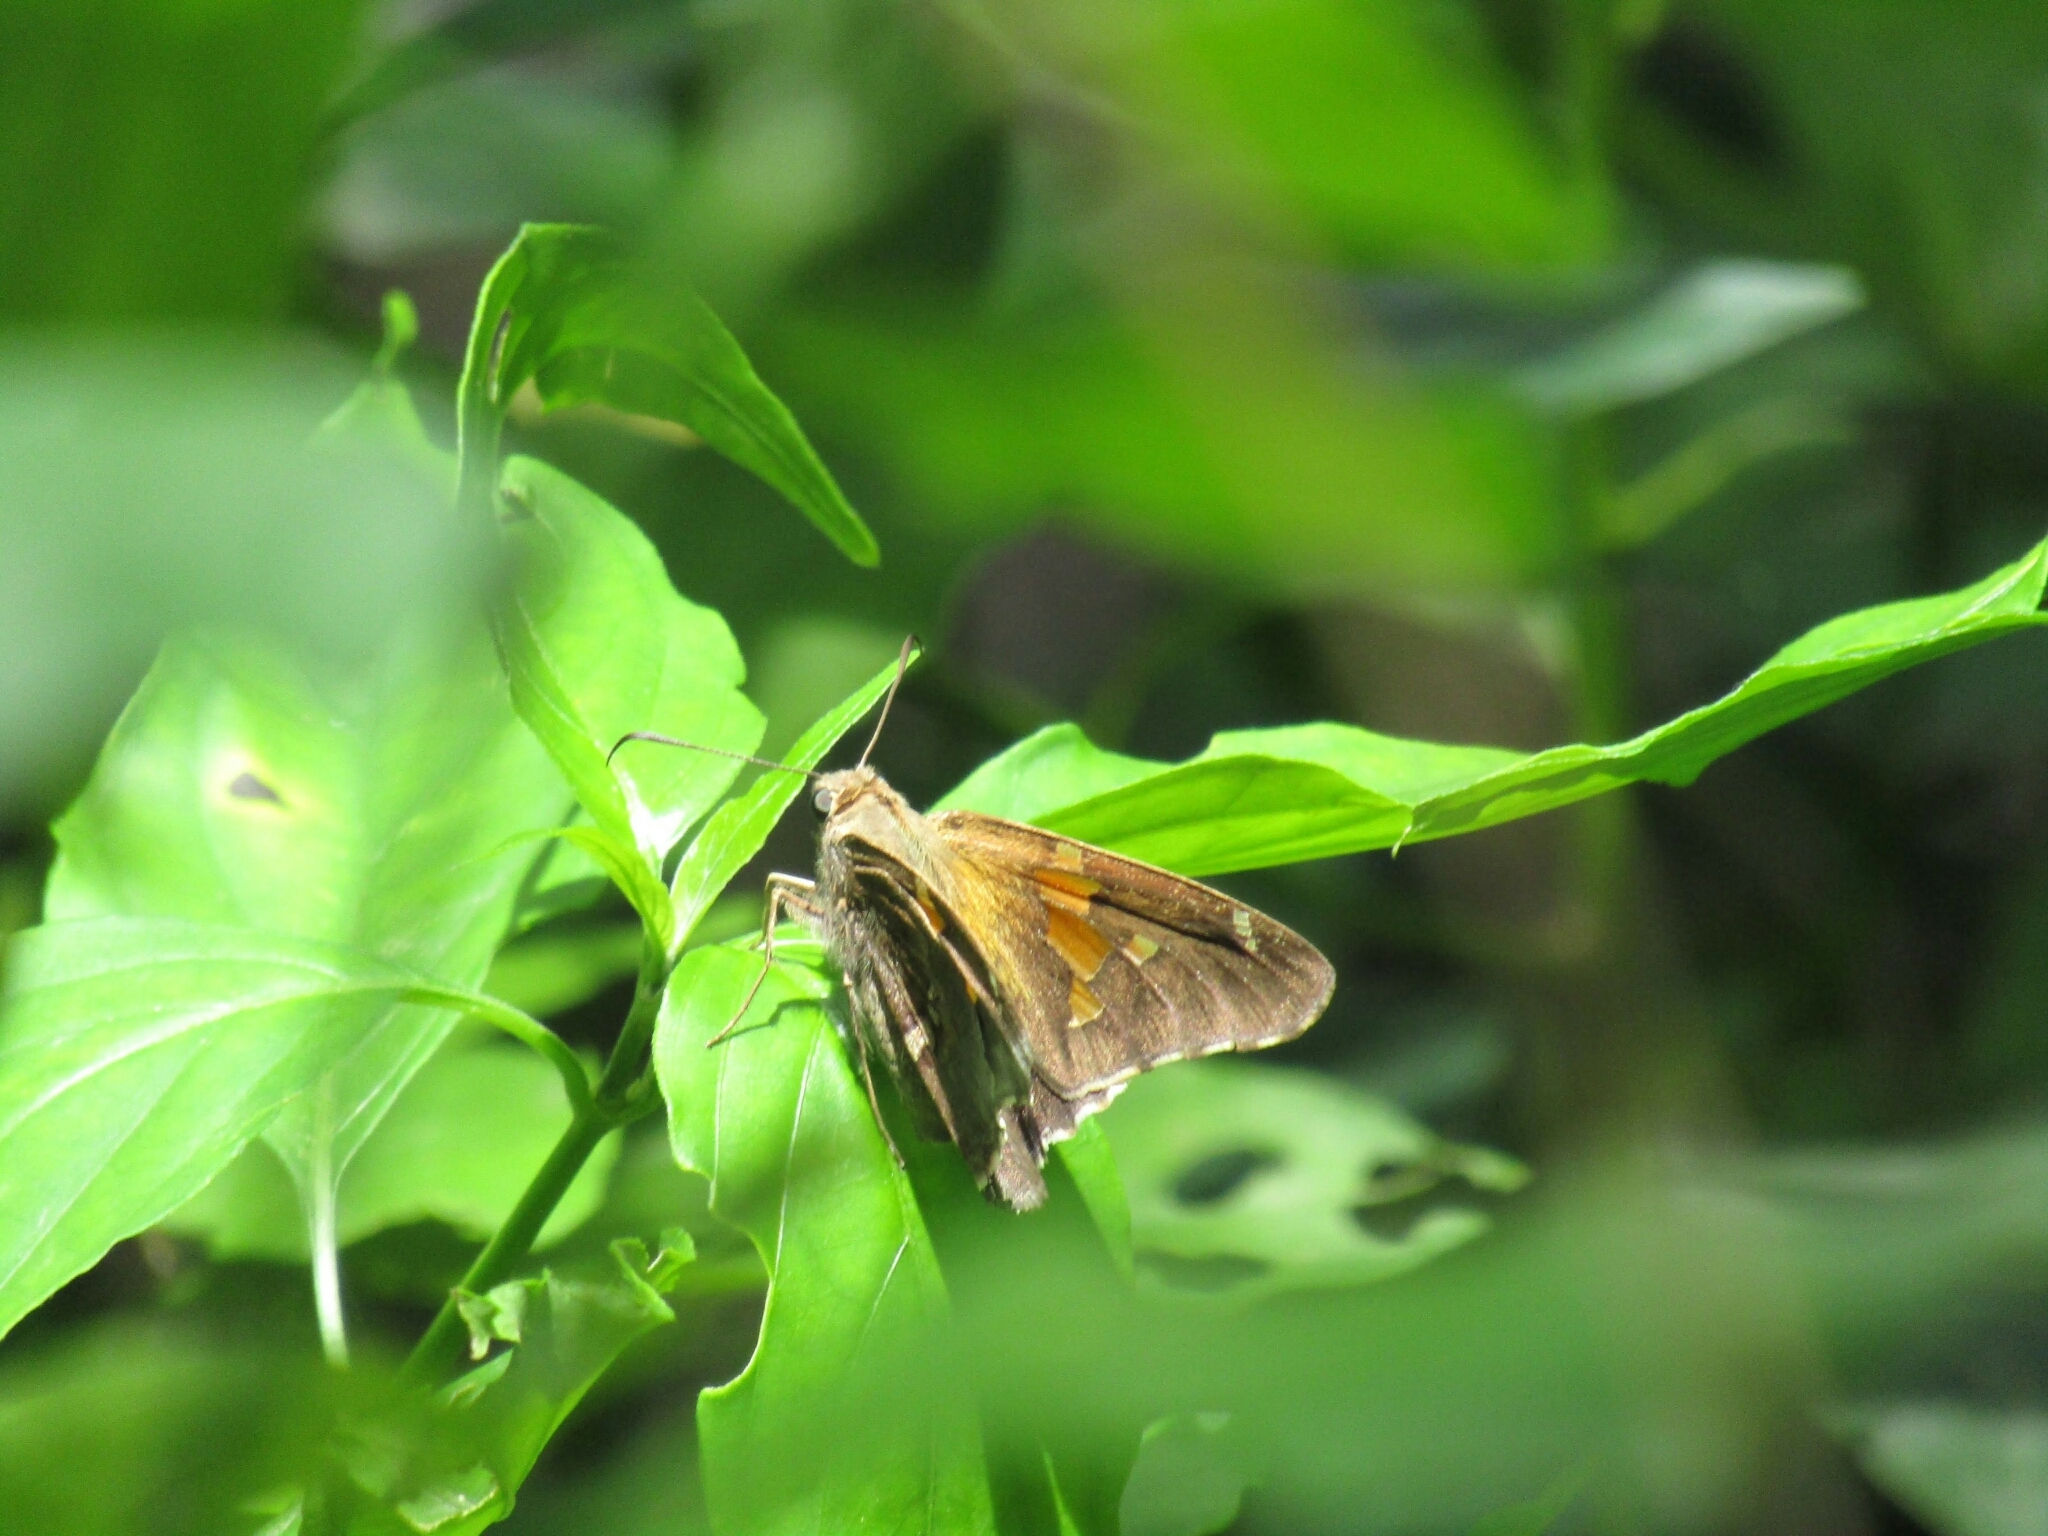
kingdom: Animalia
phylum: Arthropoda
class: Insecta
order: Lepidoptera
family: Hesperiidae
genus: Epargyreus
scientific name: Epargyreus tmolis
